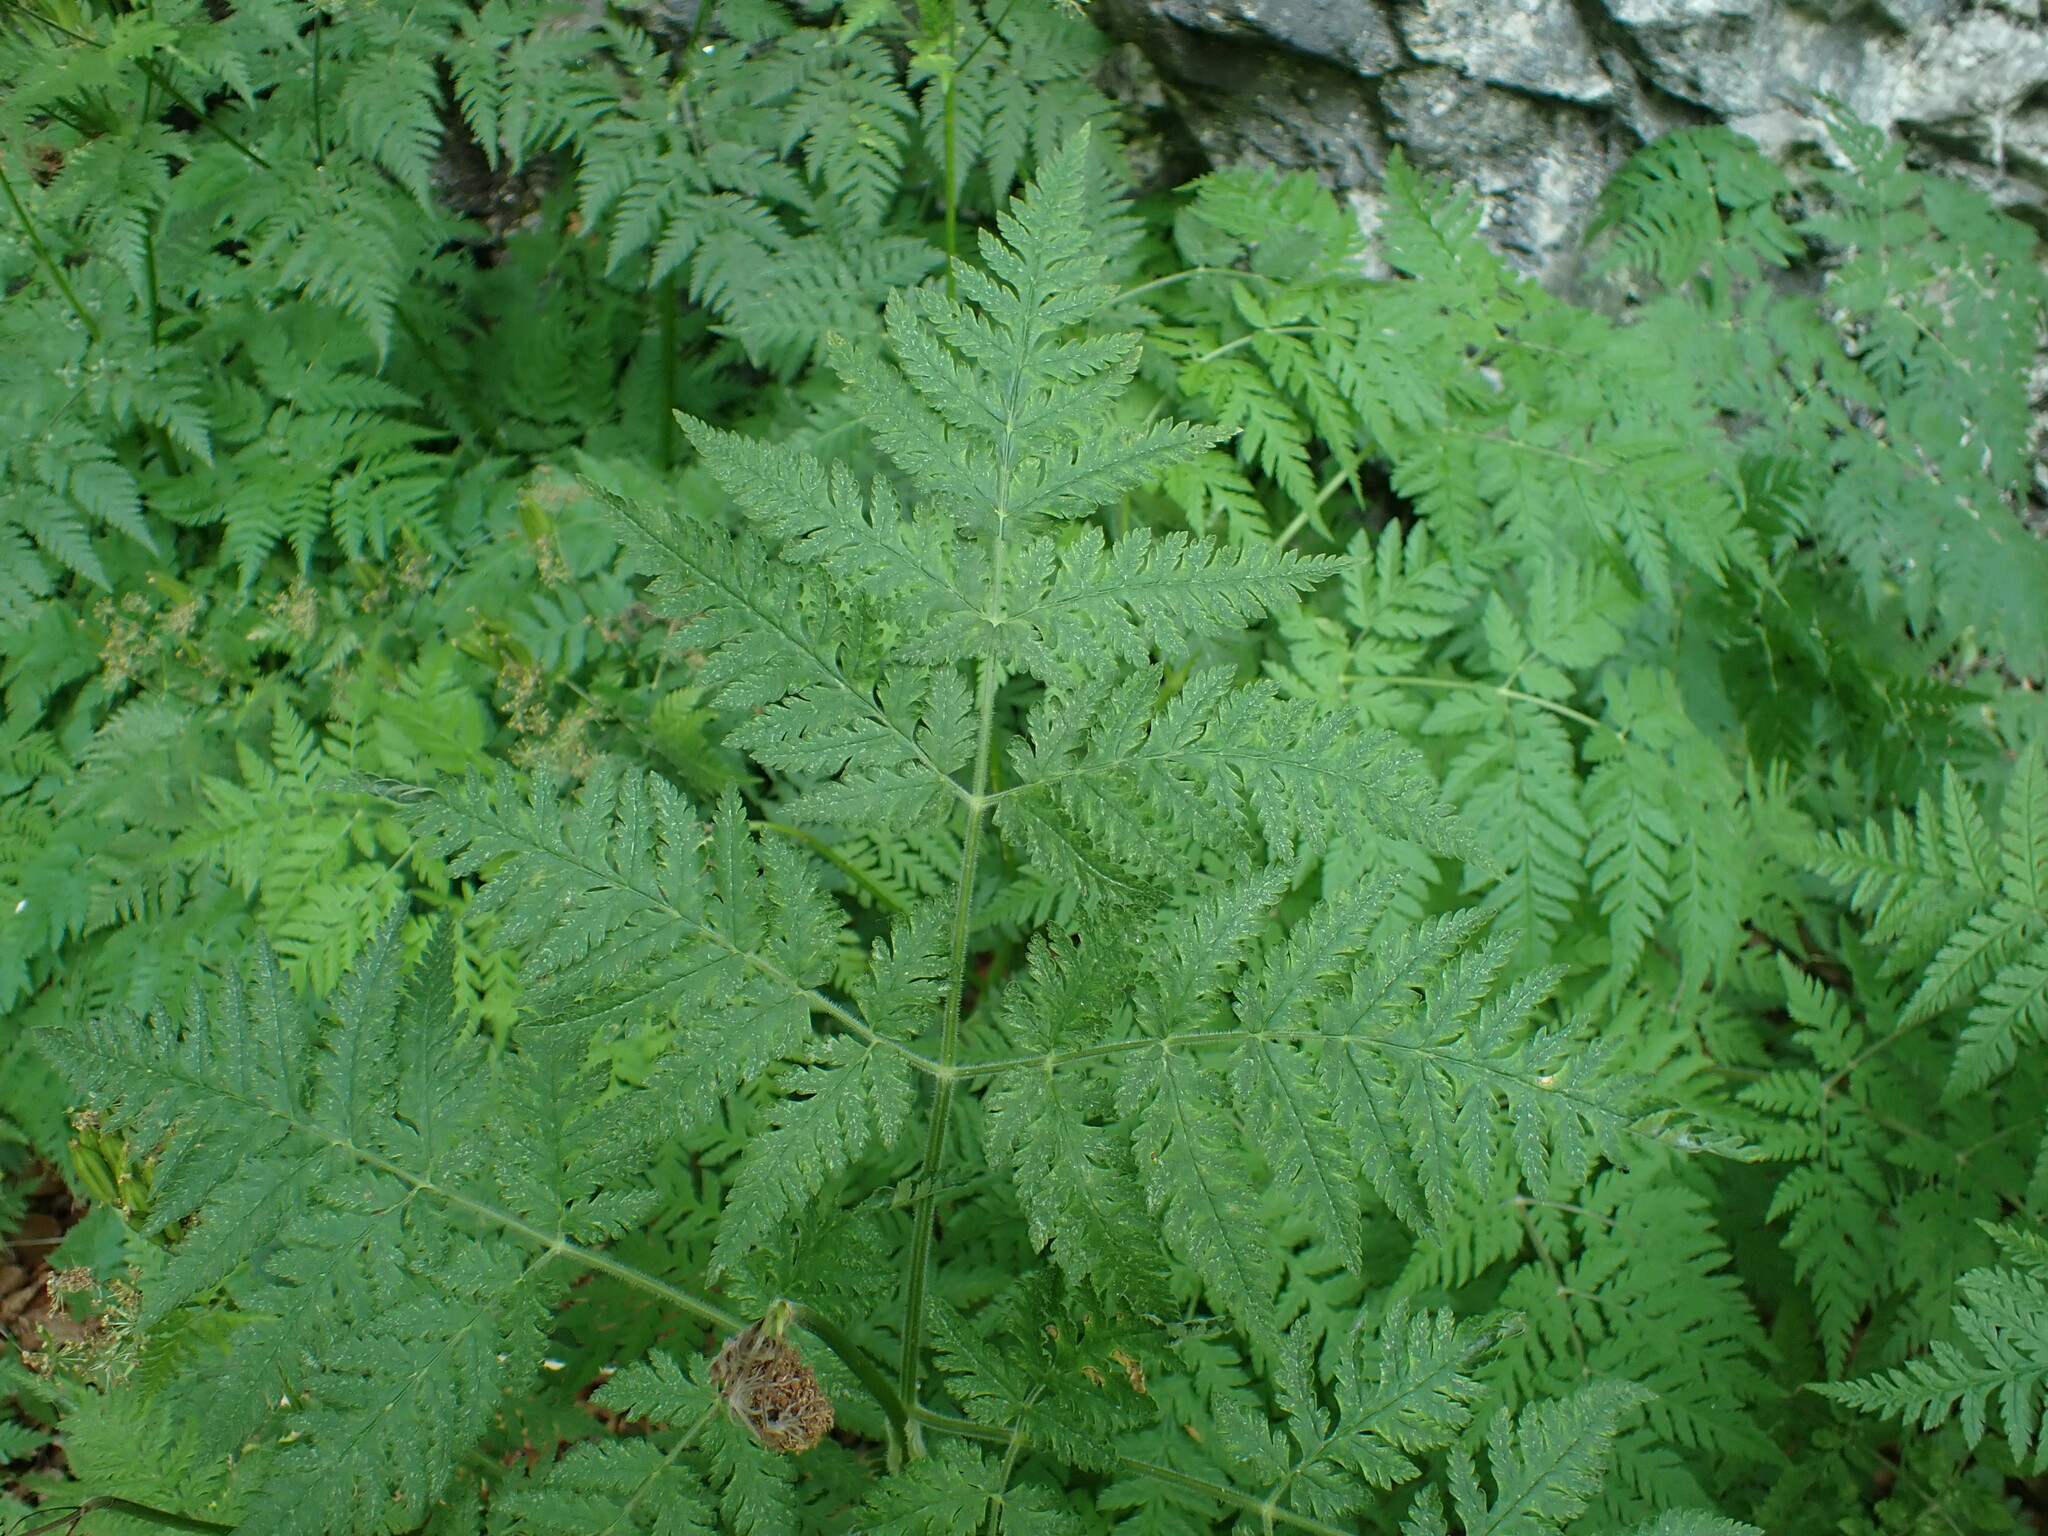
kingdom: Plantae
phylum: Tracheophyta
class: Magnoliopsida
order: Apiales
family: Apiaceae
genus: Myrrhis
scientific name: Myrrhis odorata
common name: Sweet cicely
